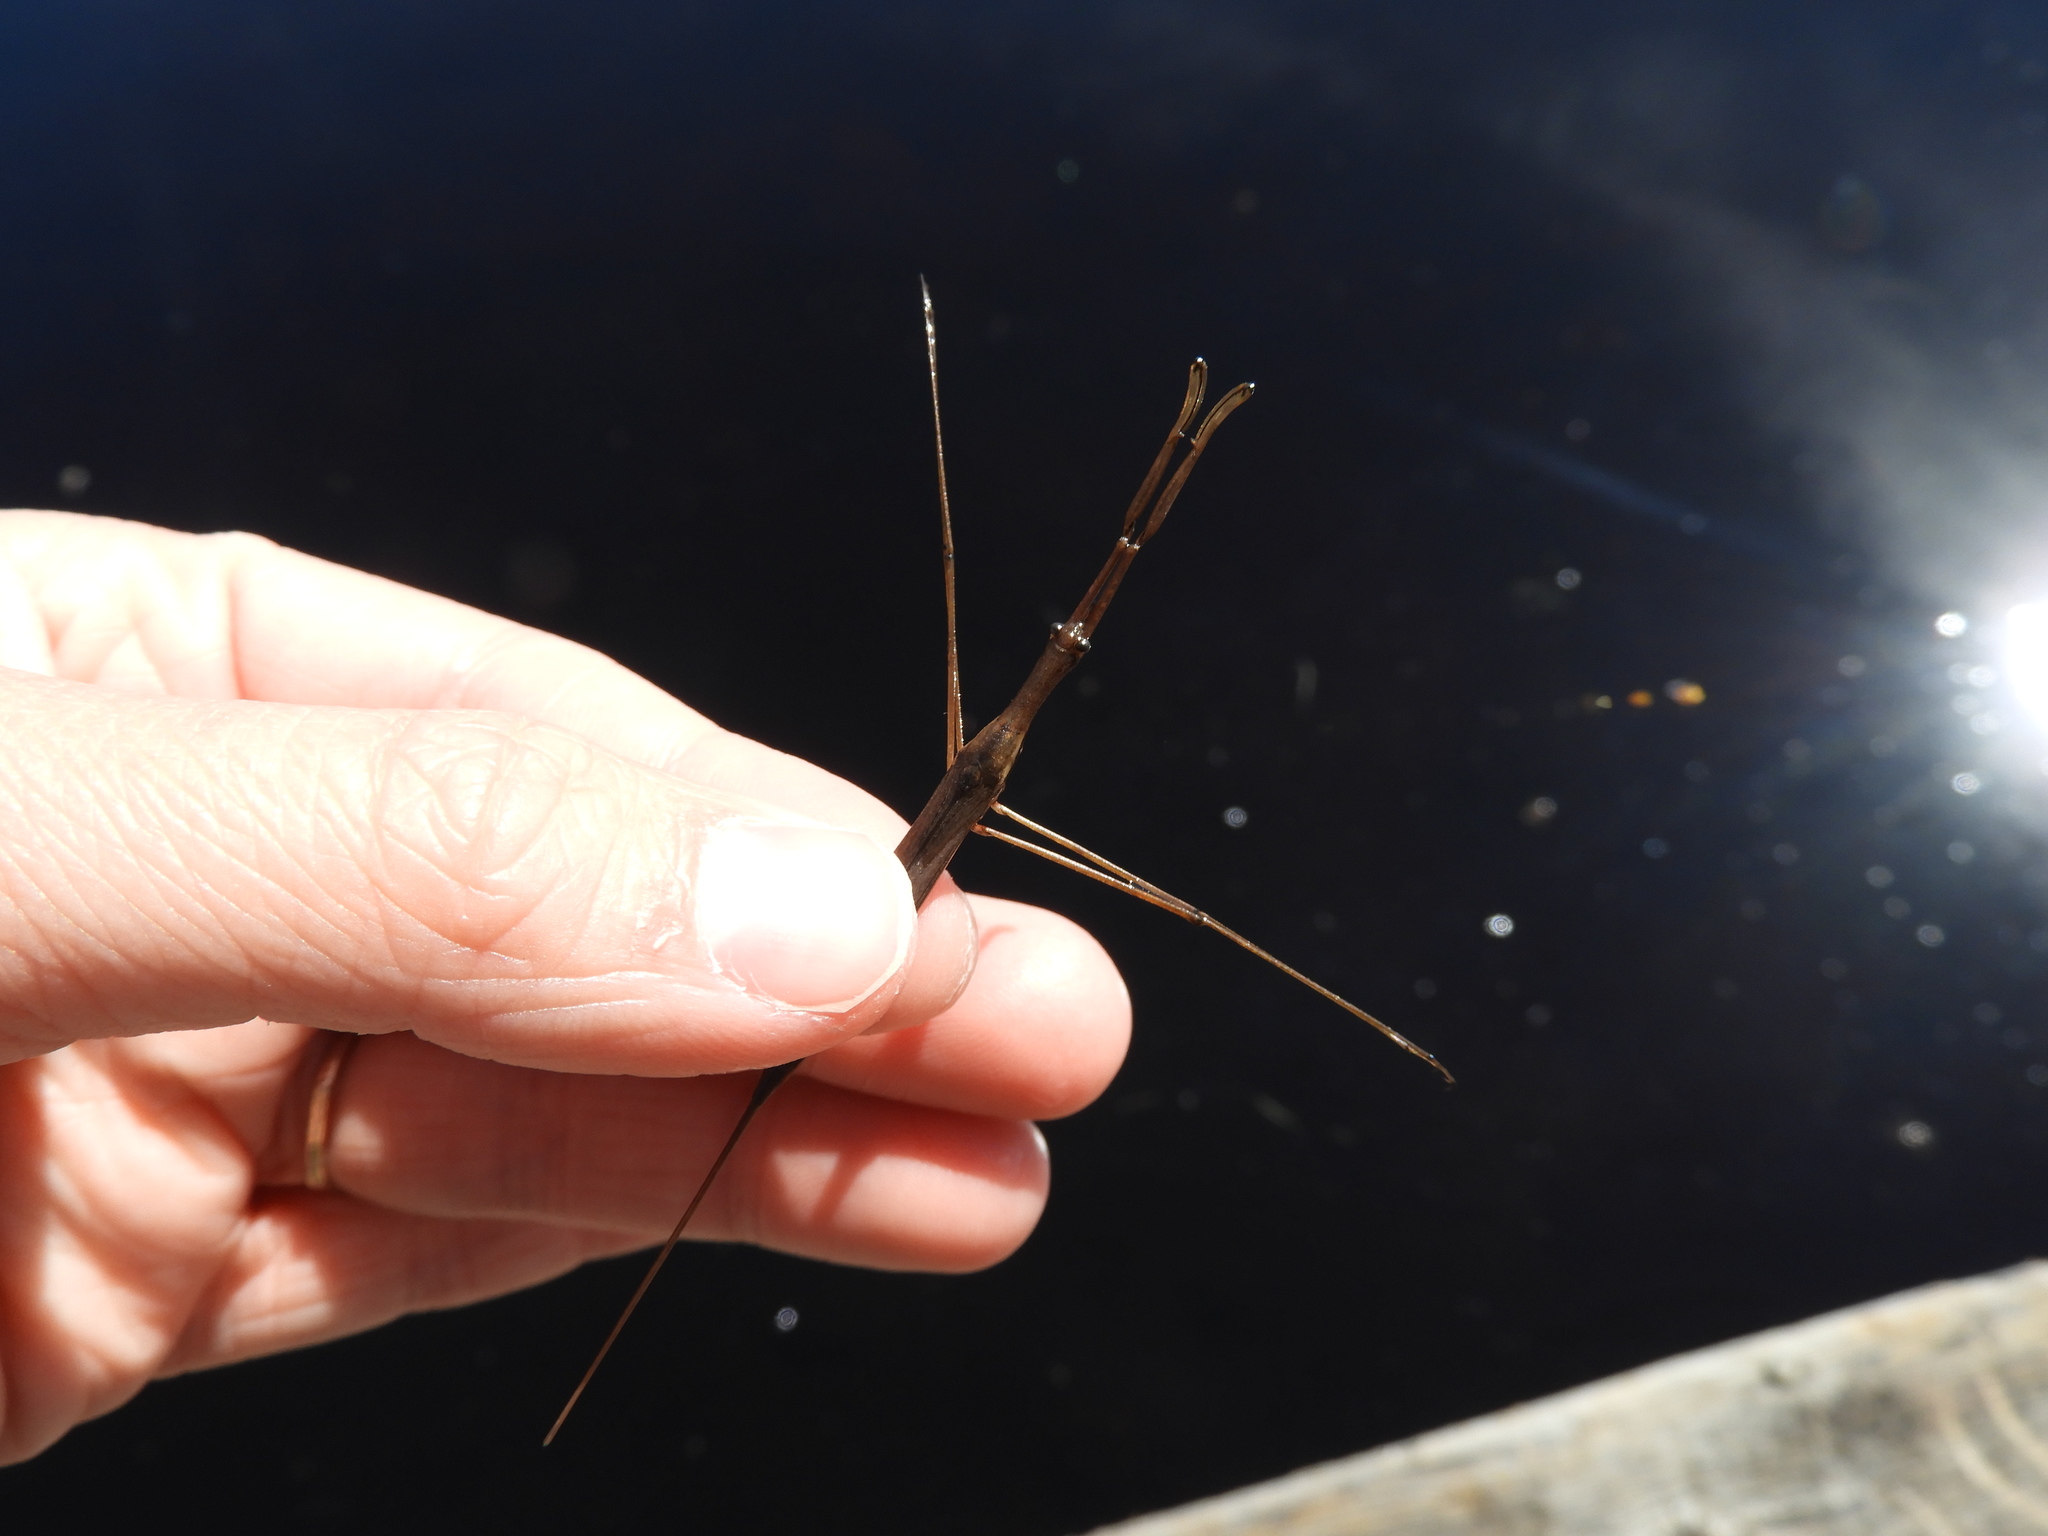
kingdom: Animalia
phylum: Arthropoda
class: Insecta
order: Hemiptera
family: Nepidae
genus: Ranatra
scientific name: Ranatra fusca
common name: Brown waterscorpion
